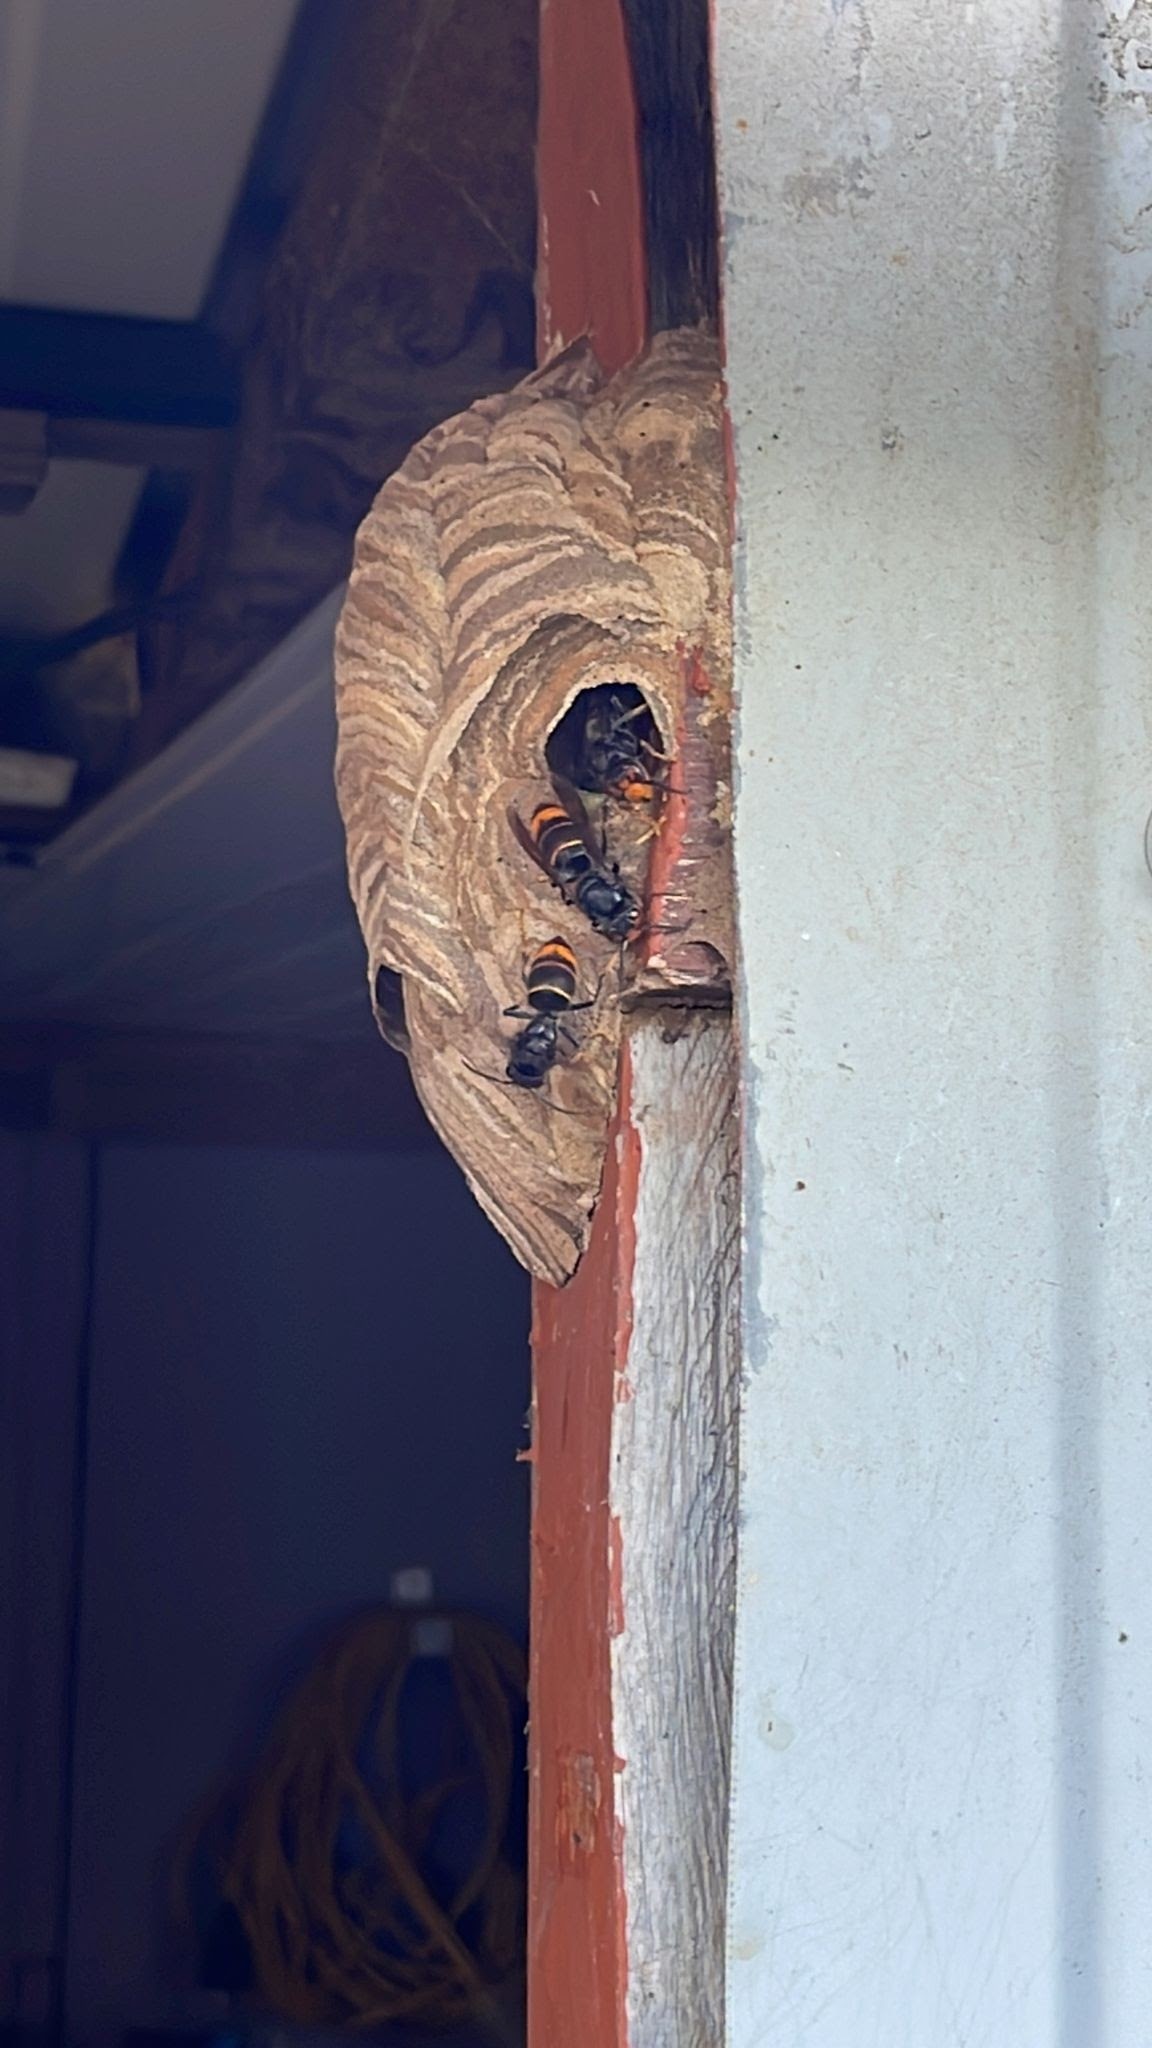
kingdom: Animalia
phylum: Arthropoda
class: Insecta
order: Hymenoptera
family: Vespidae
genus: Vespa
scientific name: Vespa velutina
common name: Asian hornet
